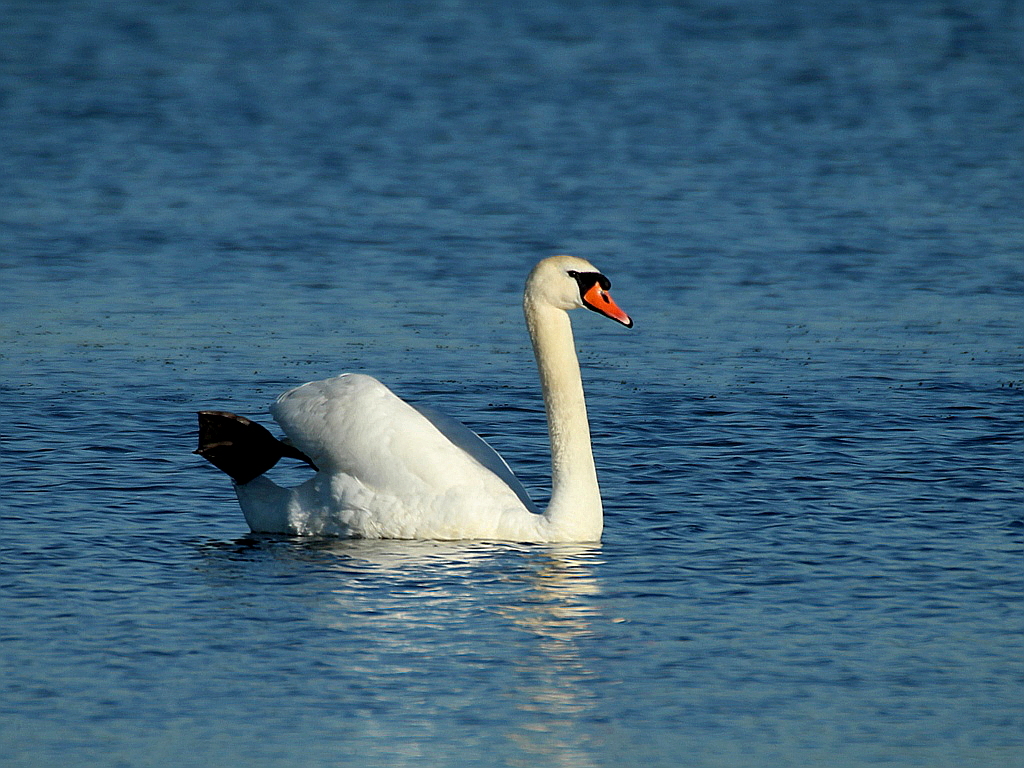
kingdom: Animalia
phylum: Chordata
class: Aves
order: Anseriformes
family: Anatidae
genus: Cygnus
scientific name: Cygnus olor
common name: Mute swan
